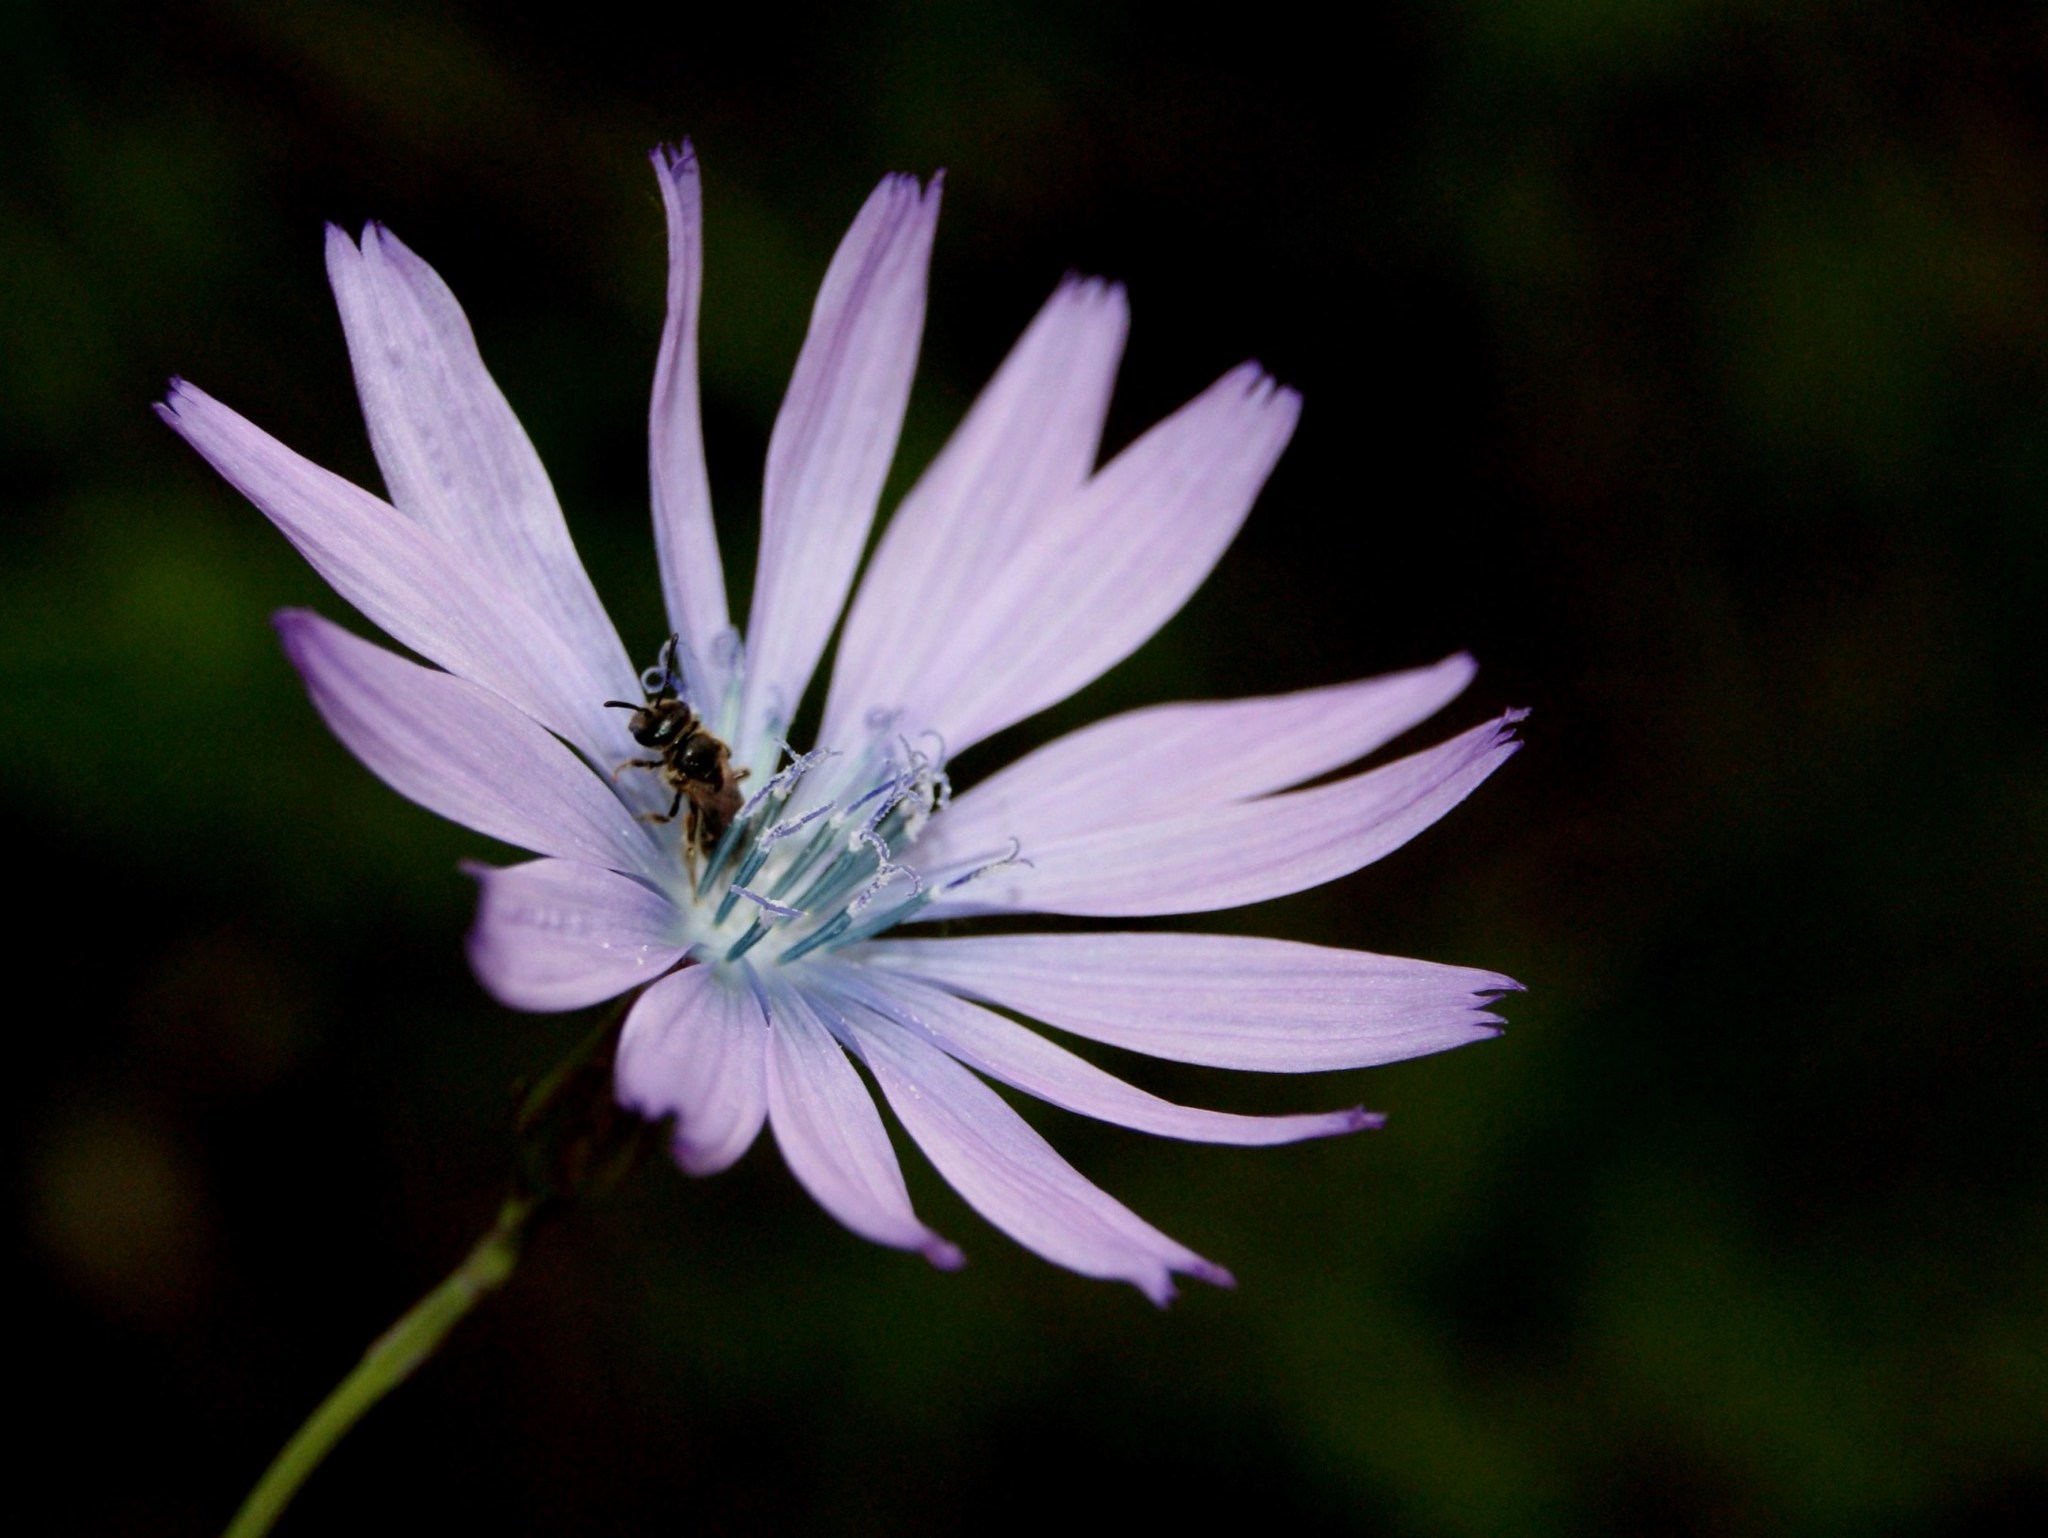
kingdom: Plantae
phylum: Tracheophyta
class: Magnoliopsida
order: Asterales
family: Asteraceae
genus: Lactuca
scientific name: Lactuca perennis
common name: Mountain lettuce
